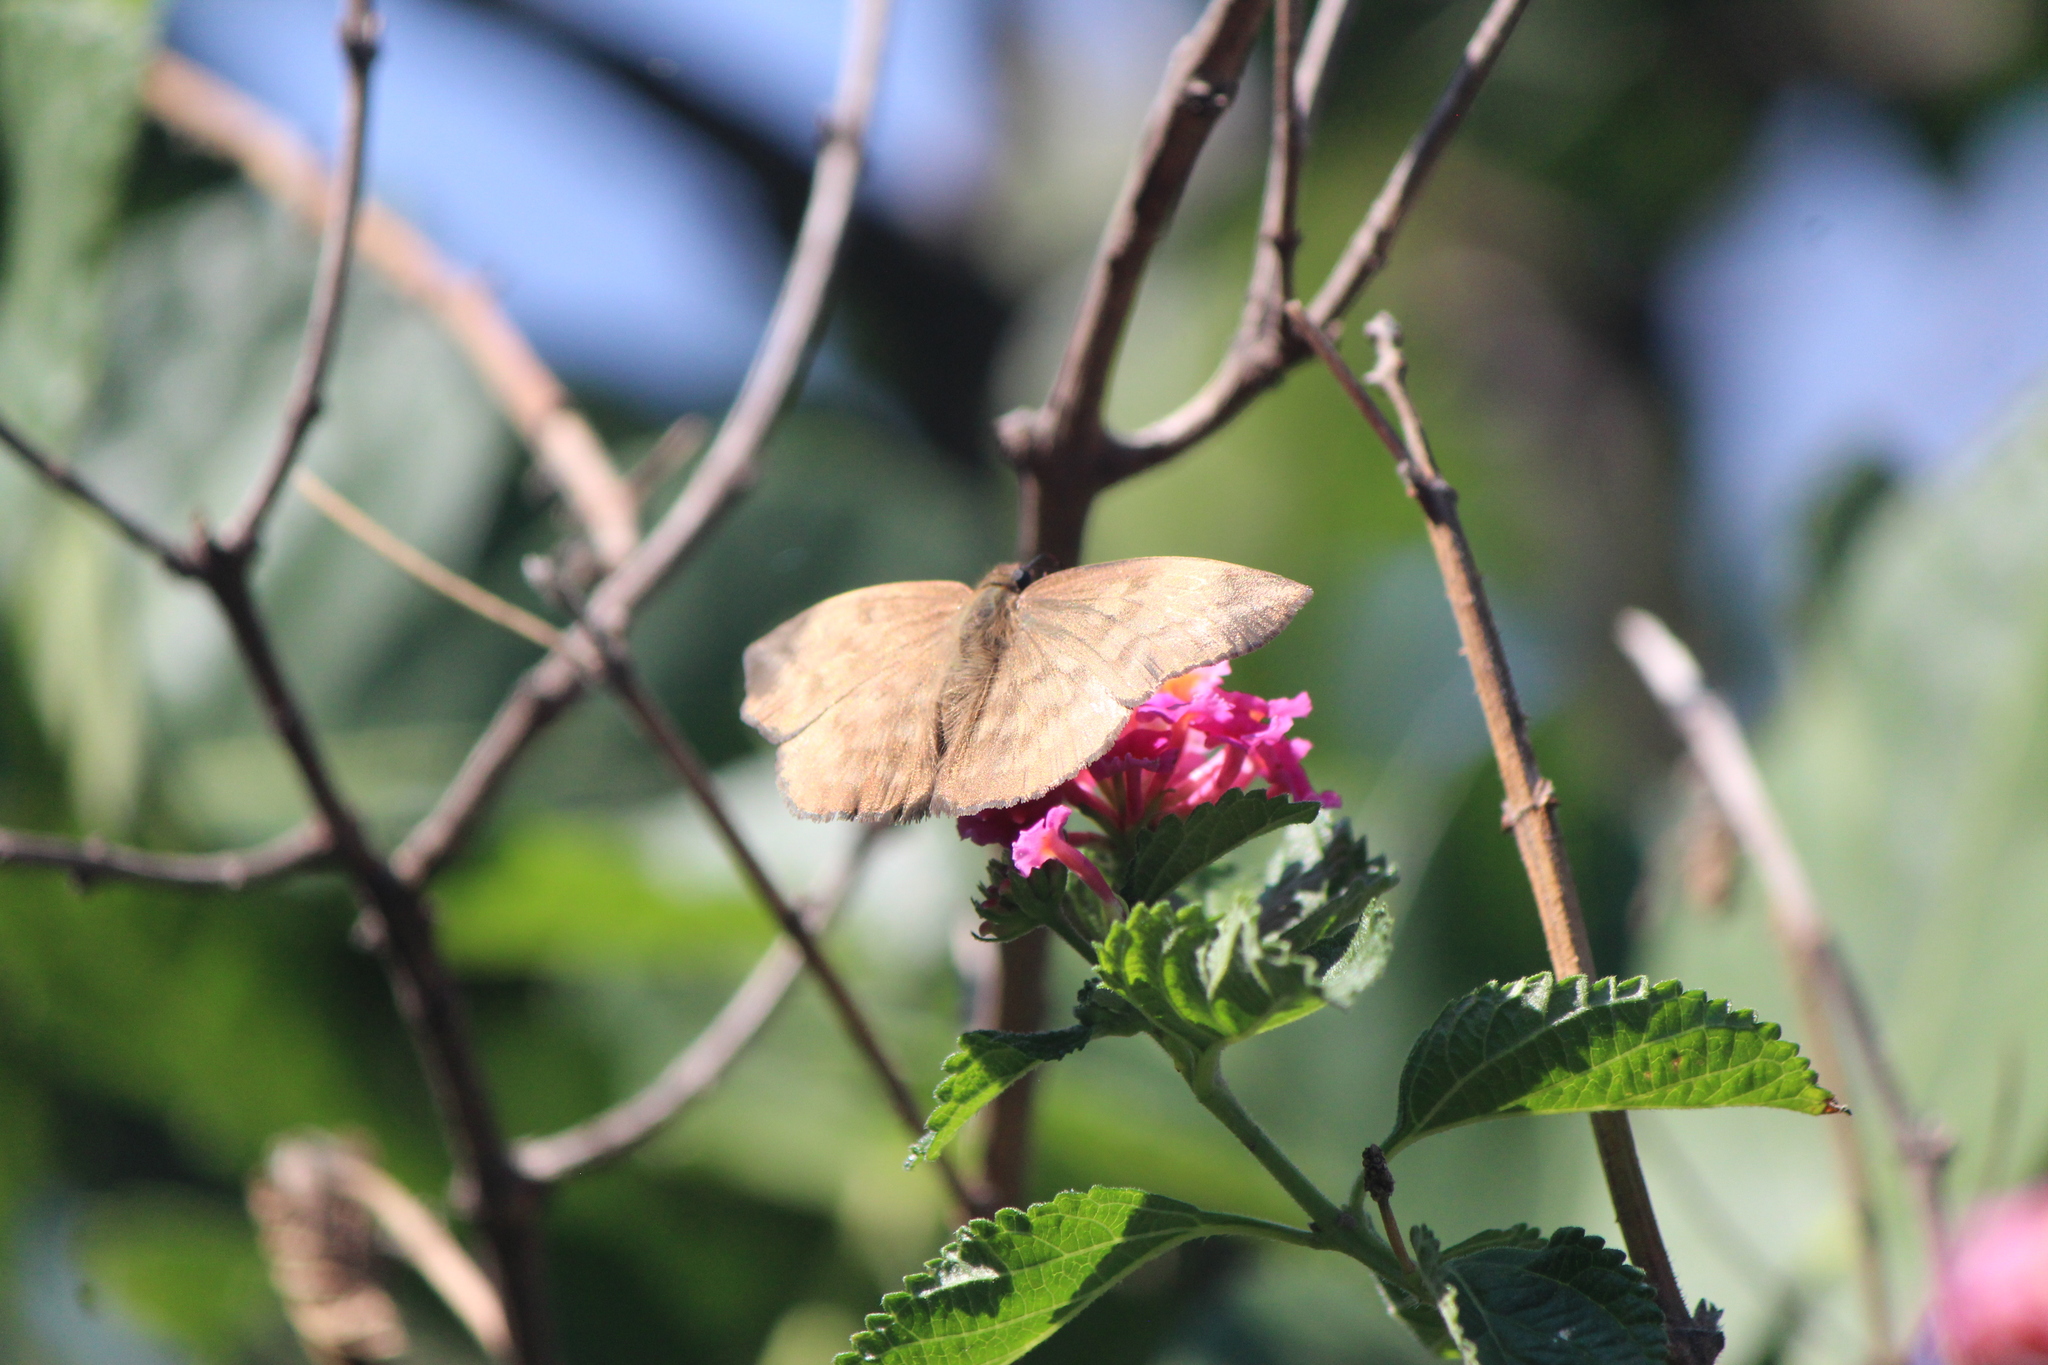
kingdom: Animalia
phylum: Arthropoda
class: Insecta
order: Lepidoptera
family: Hesperiidae
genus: Achlyodes
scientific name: Achlyodes pallida
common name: Pale sicklewing
